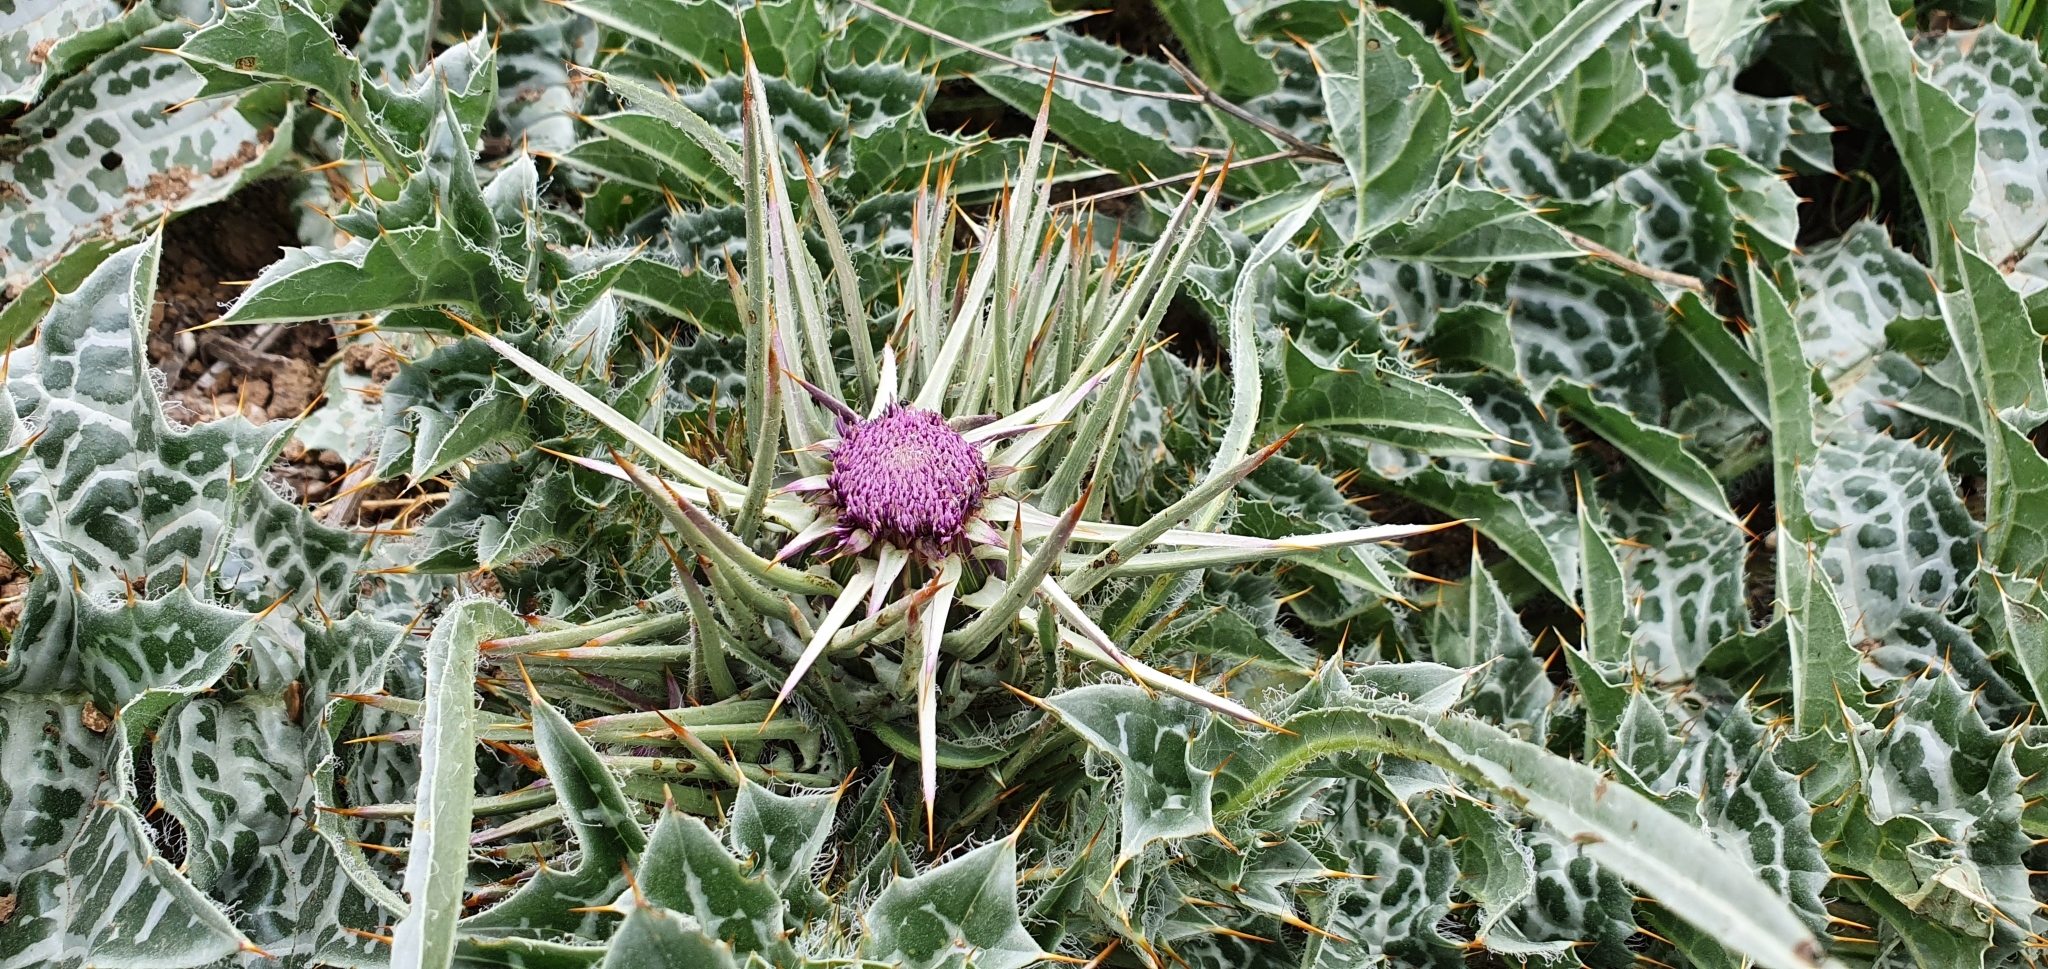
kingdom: Plantae
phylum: Tracheophyta
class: Magnoliopsida
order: Asterales
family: Asteraceae
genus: Silybum
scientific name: Silybum eburneum
